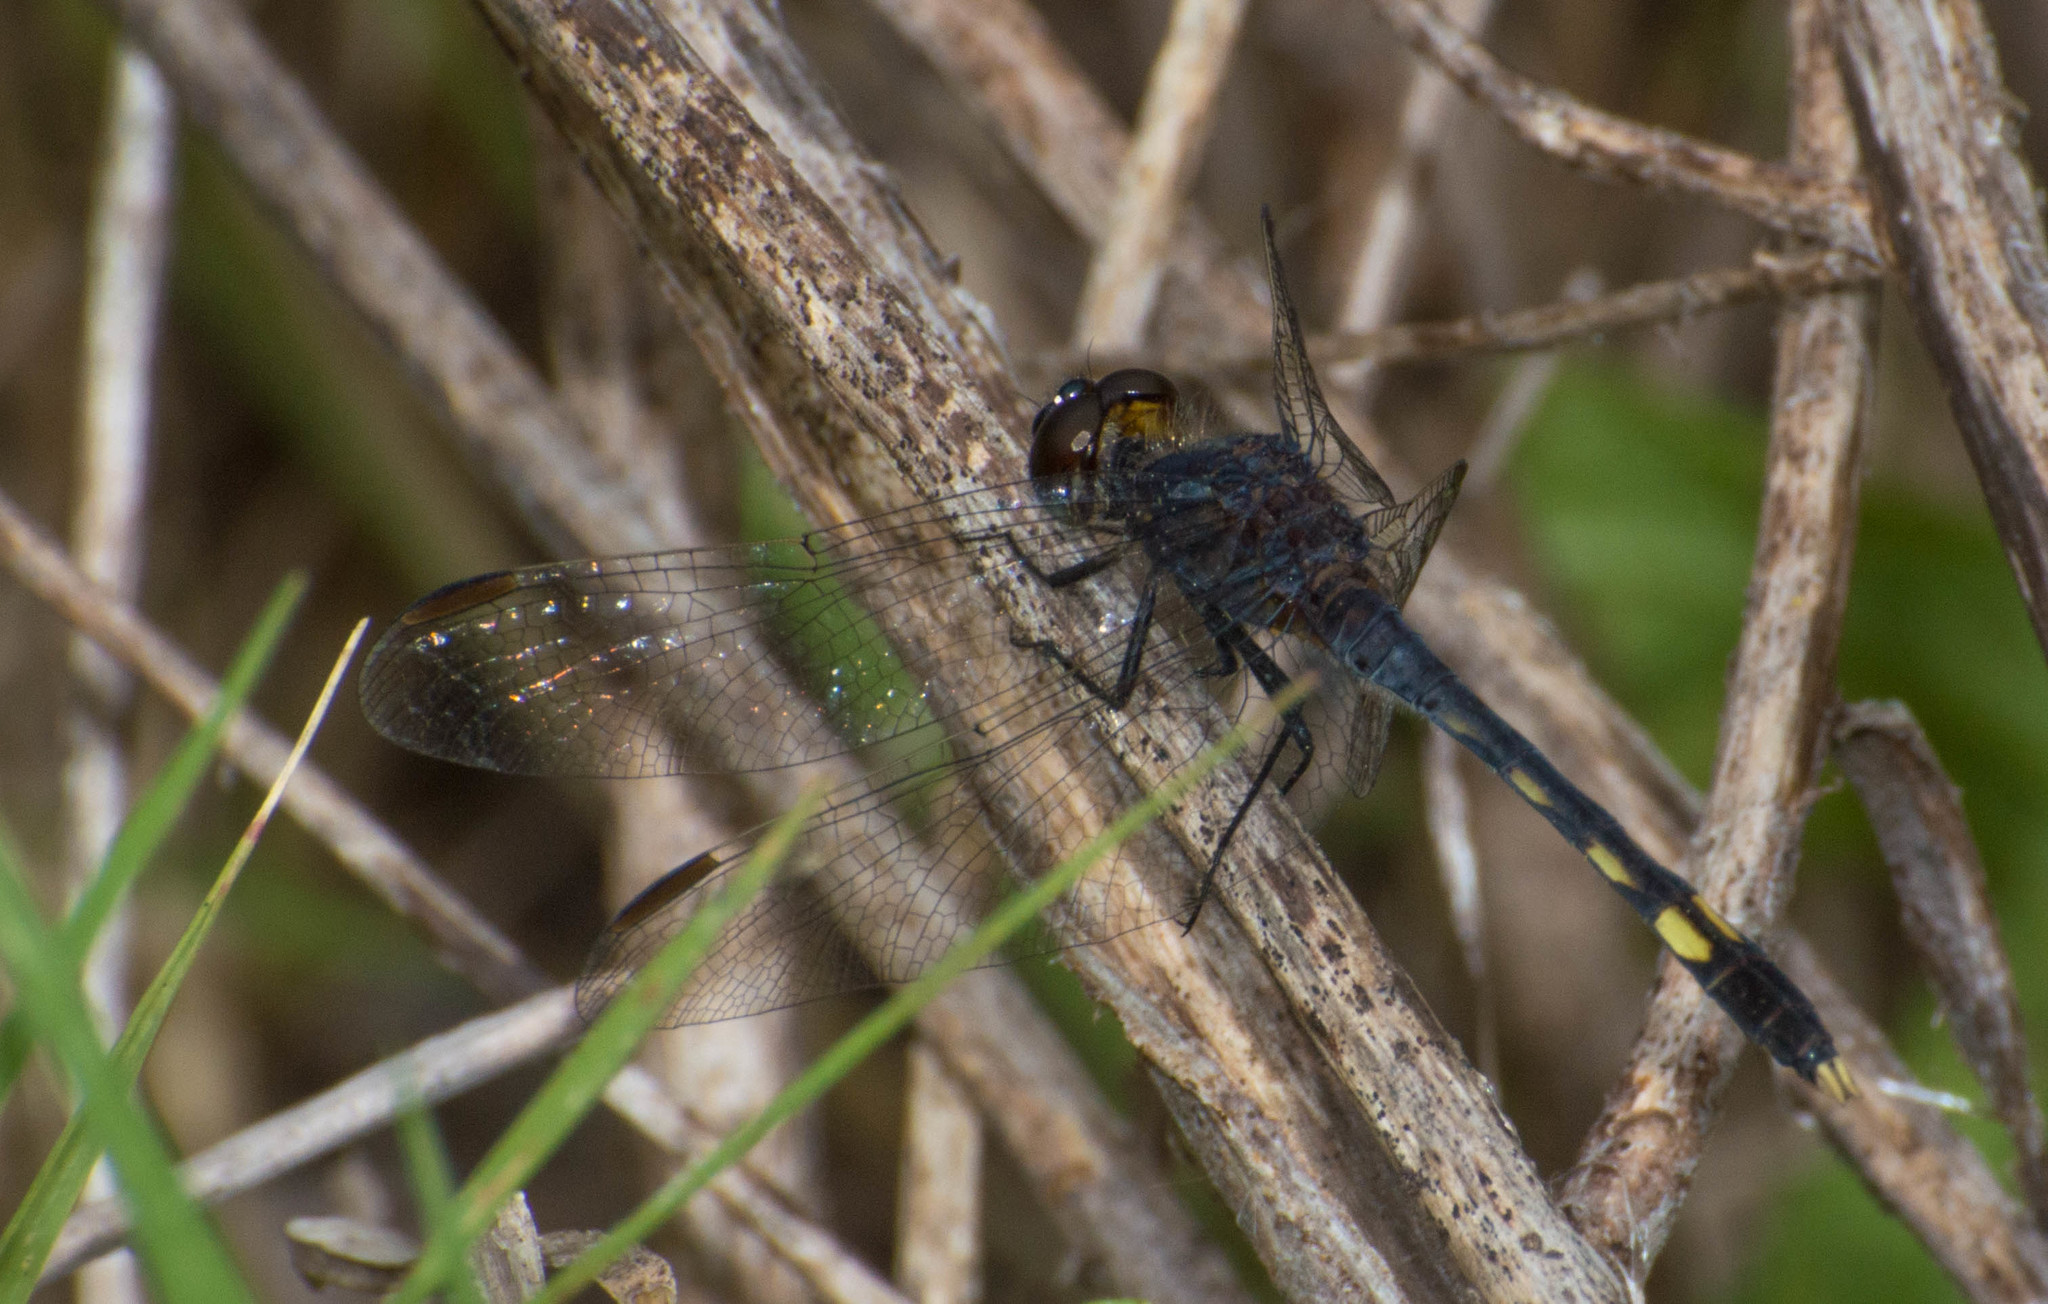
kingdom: Animalia
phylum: Arthropoda
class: Insecta
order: Odonata
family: Libellulidae
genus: Erythrodiplax
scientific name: Erythrodiplax nigricans
